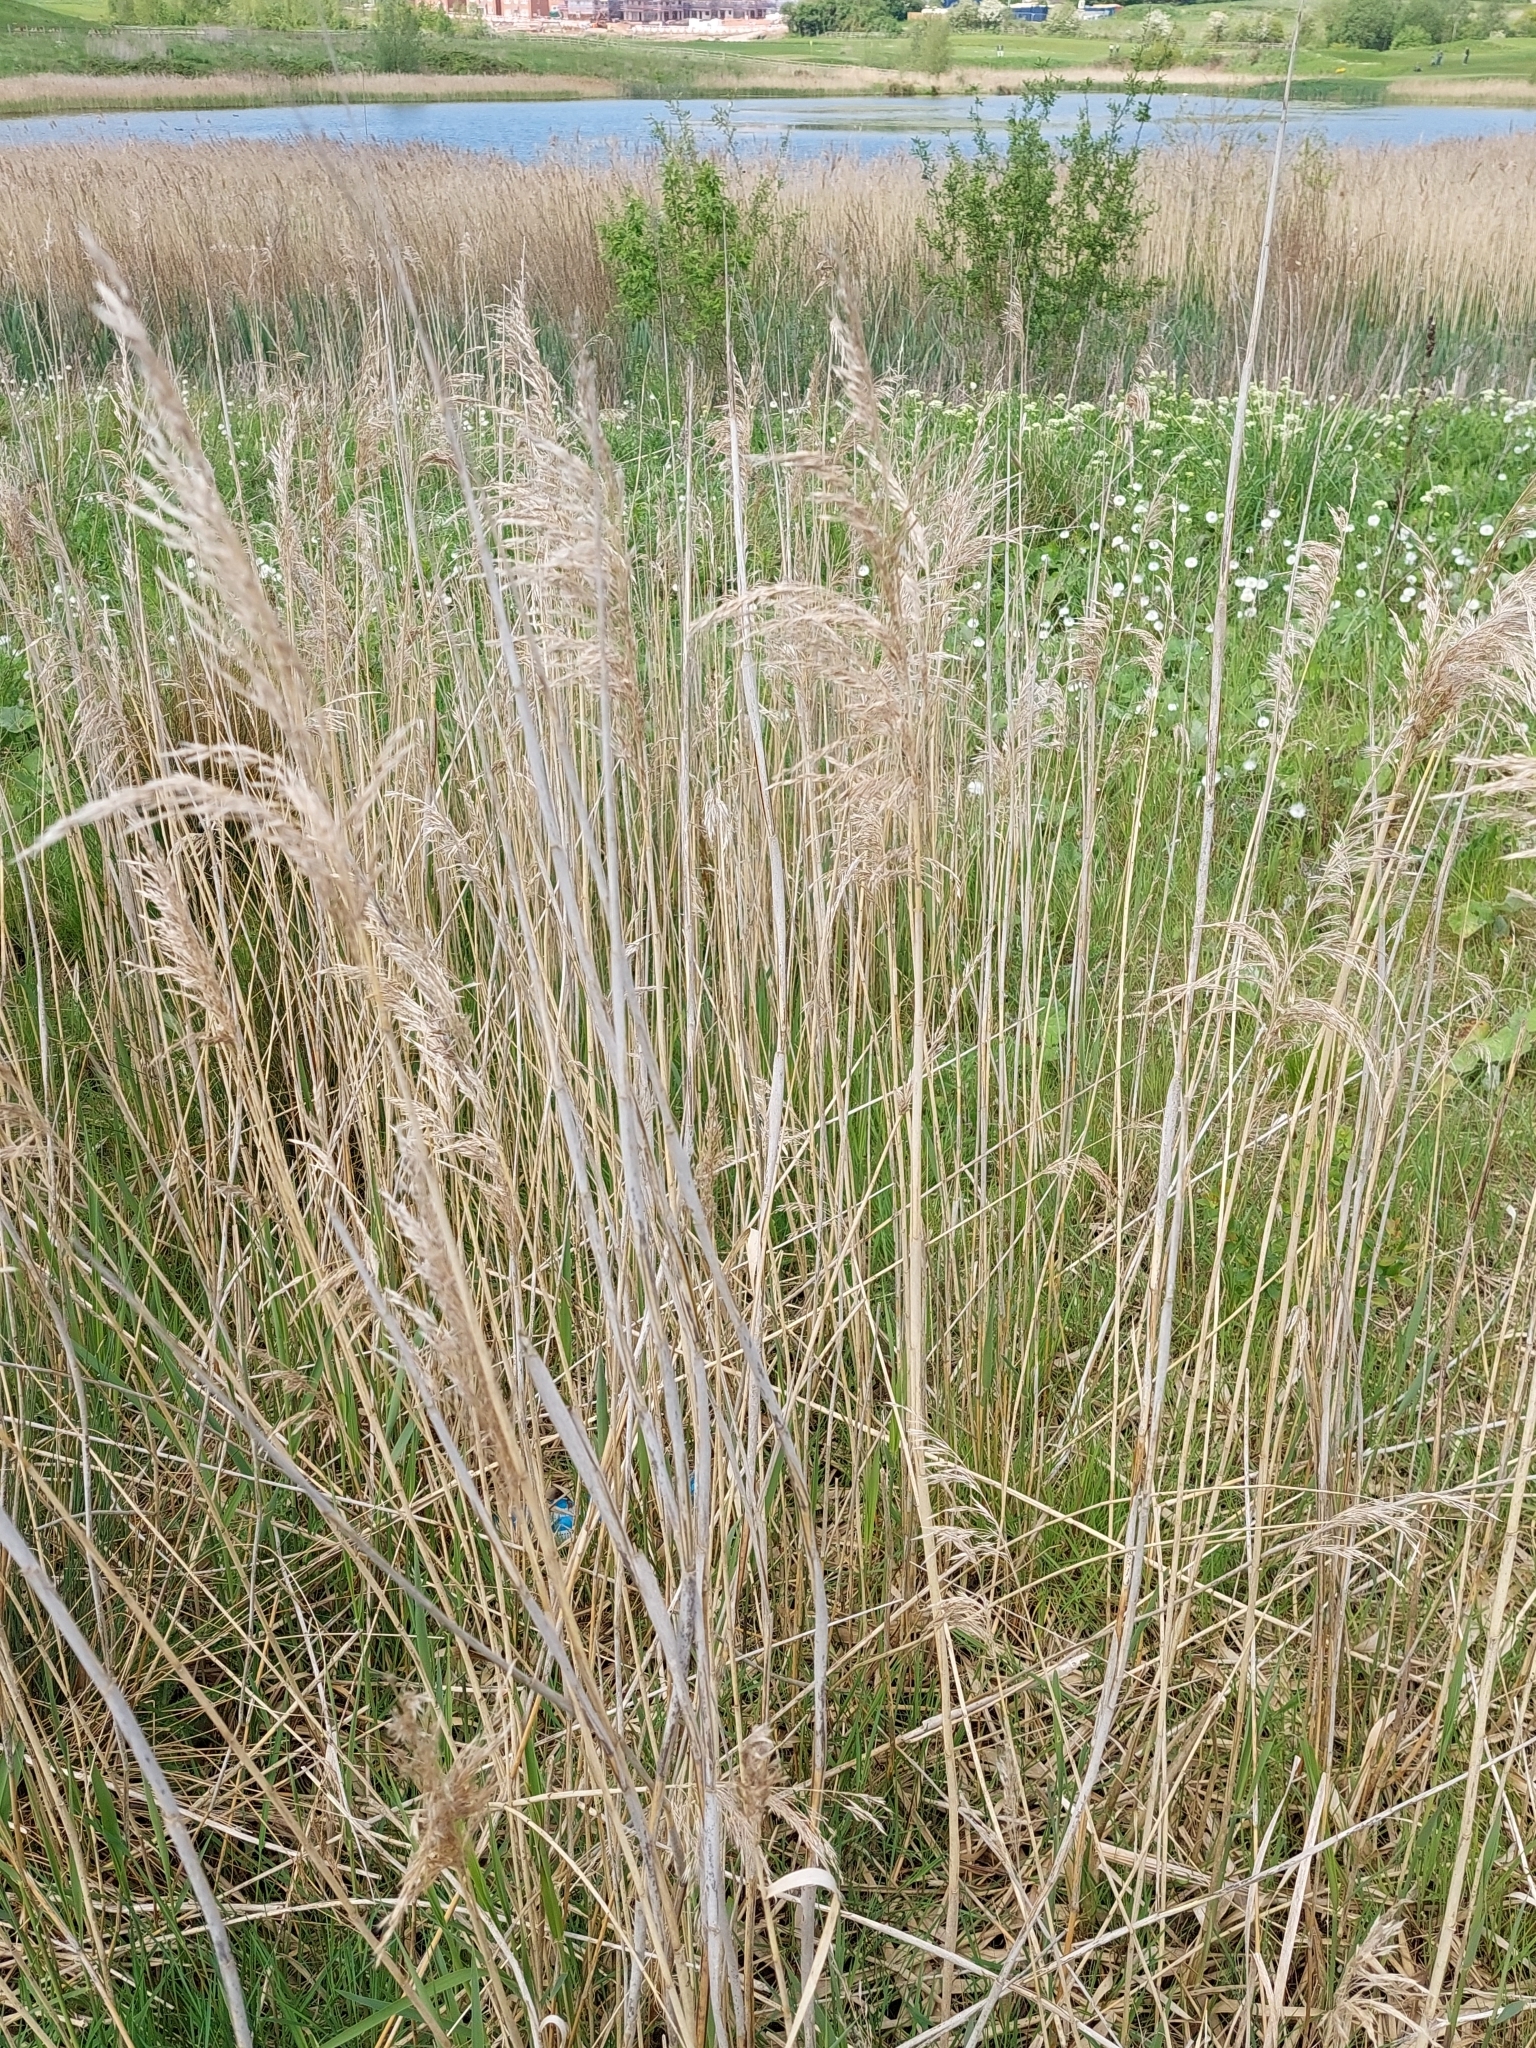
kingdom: Plantae
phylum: Tracheophyta
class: Liliopsida
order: Poales
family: Poaceae
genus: Phragmites
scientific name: Phragmites australis
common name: Common reed
